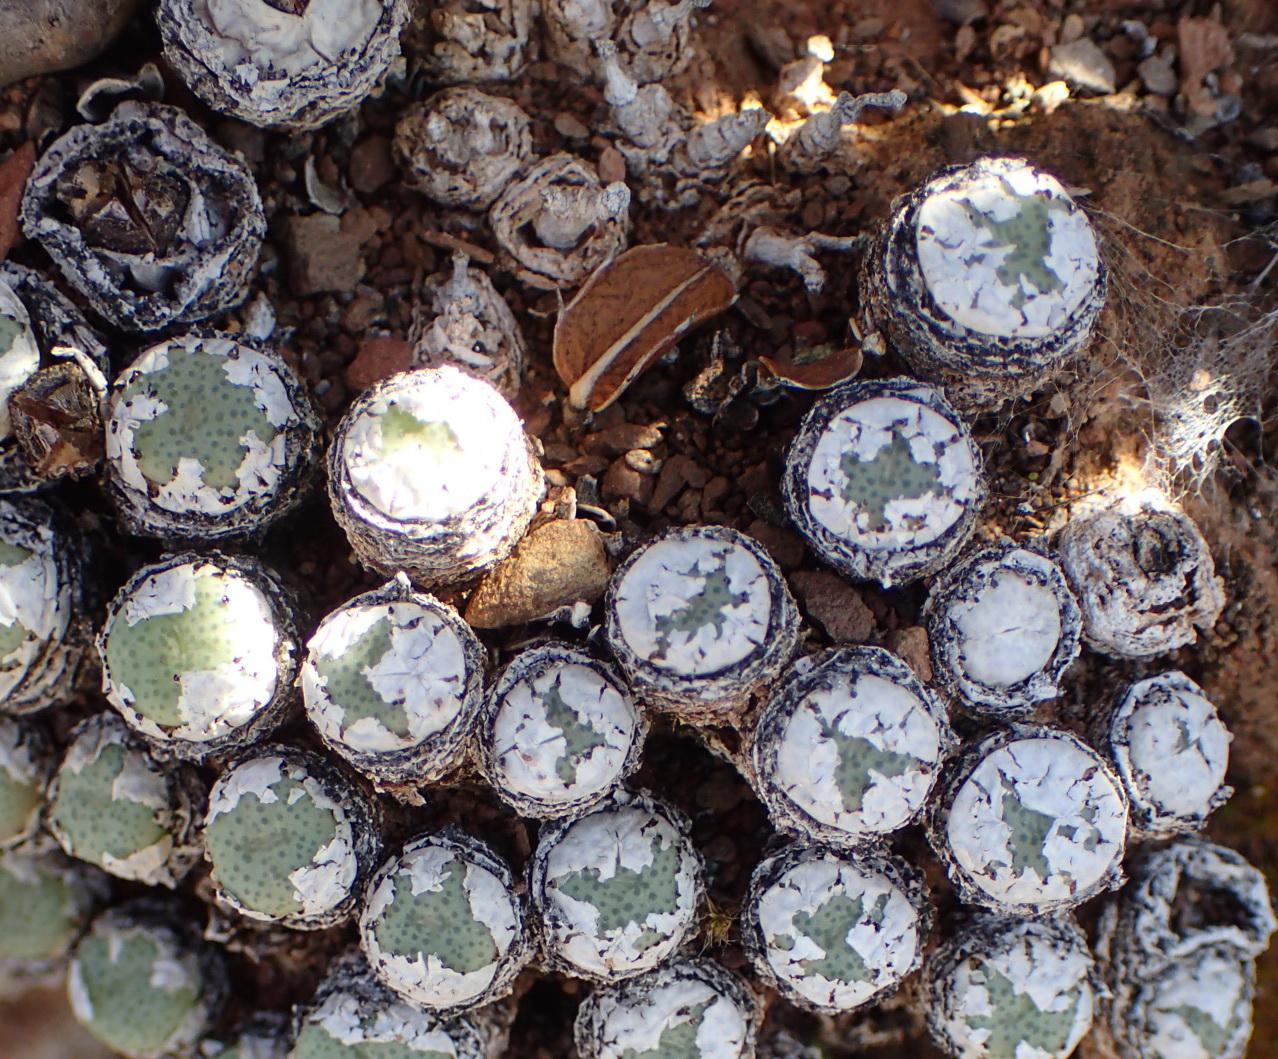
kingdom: Plantae
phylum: Tracheophyta
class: Magnoliopsida
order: Caryophyllales
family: Aizoaceae
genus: Conophytum
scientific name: Conophytum truncatum
